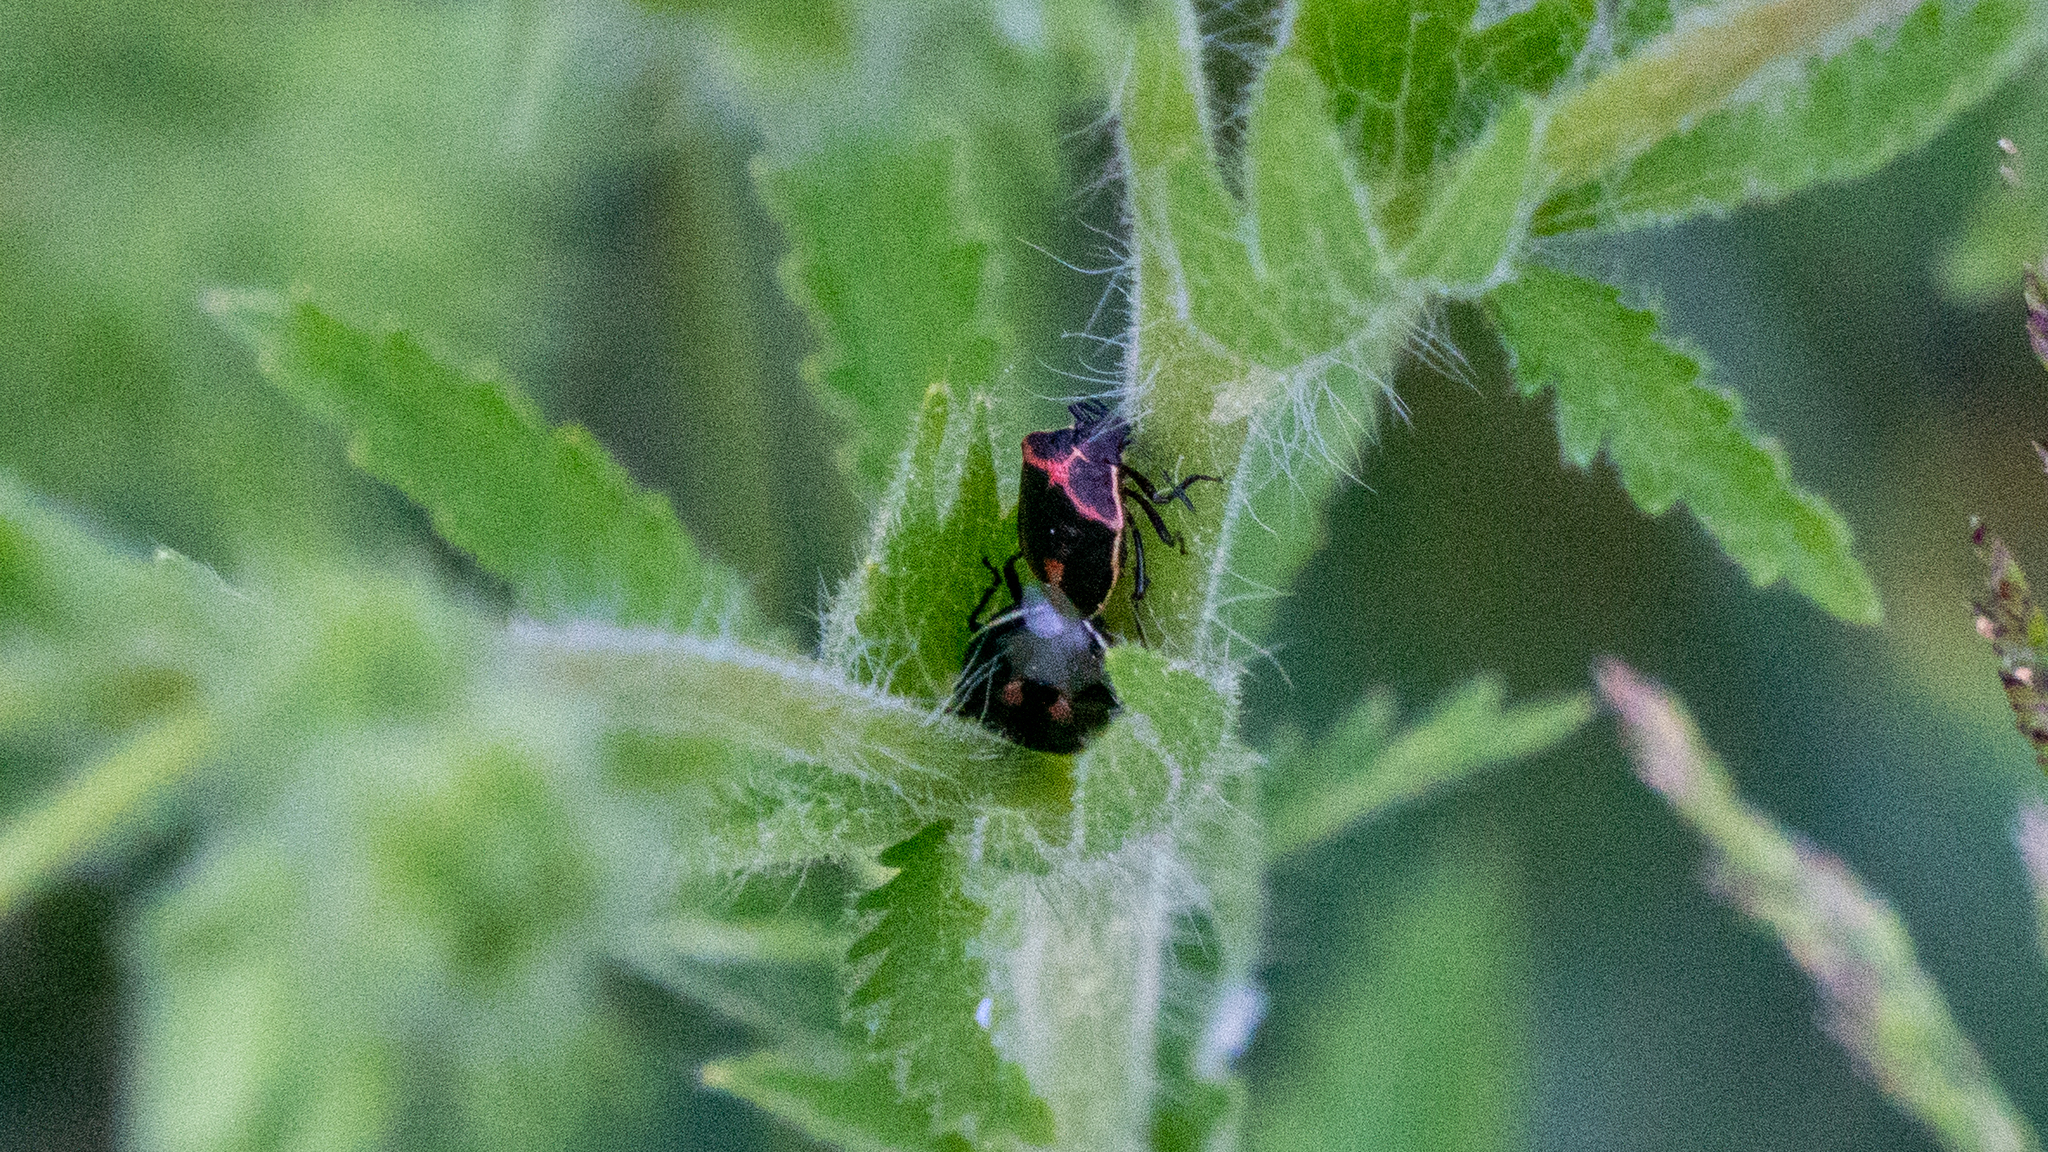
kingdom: Animalia
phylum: Arthropoda
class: Insecta
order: Hemiptera
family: Pentatomidae
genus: Cosmopepla
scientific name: Cosmopepla lintneriana
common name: Twice-stabbed stink bug
